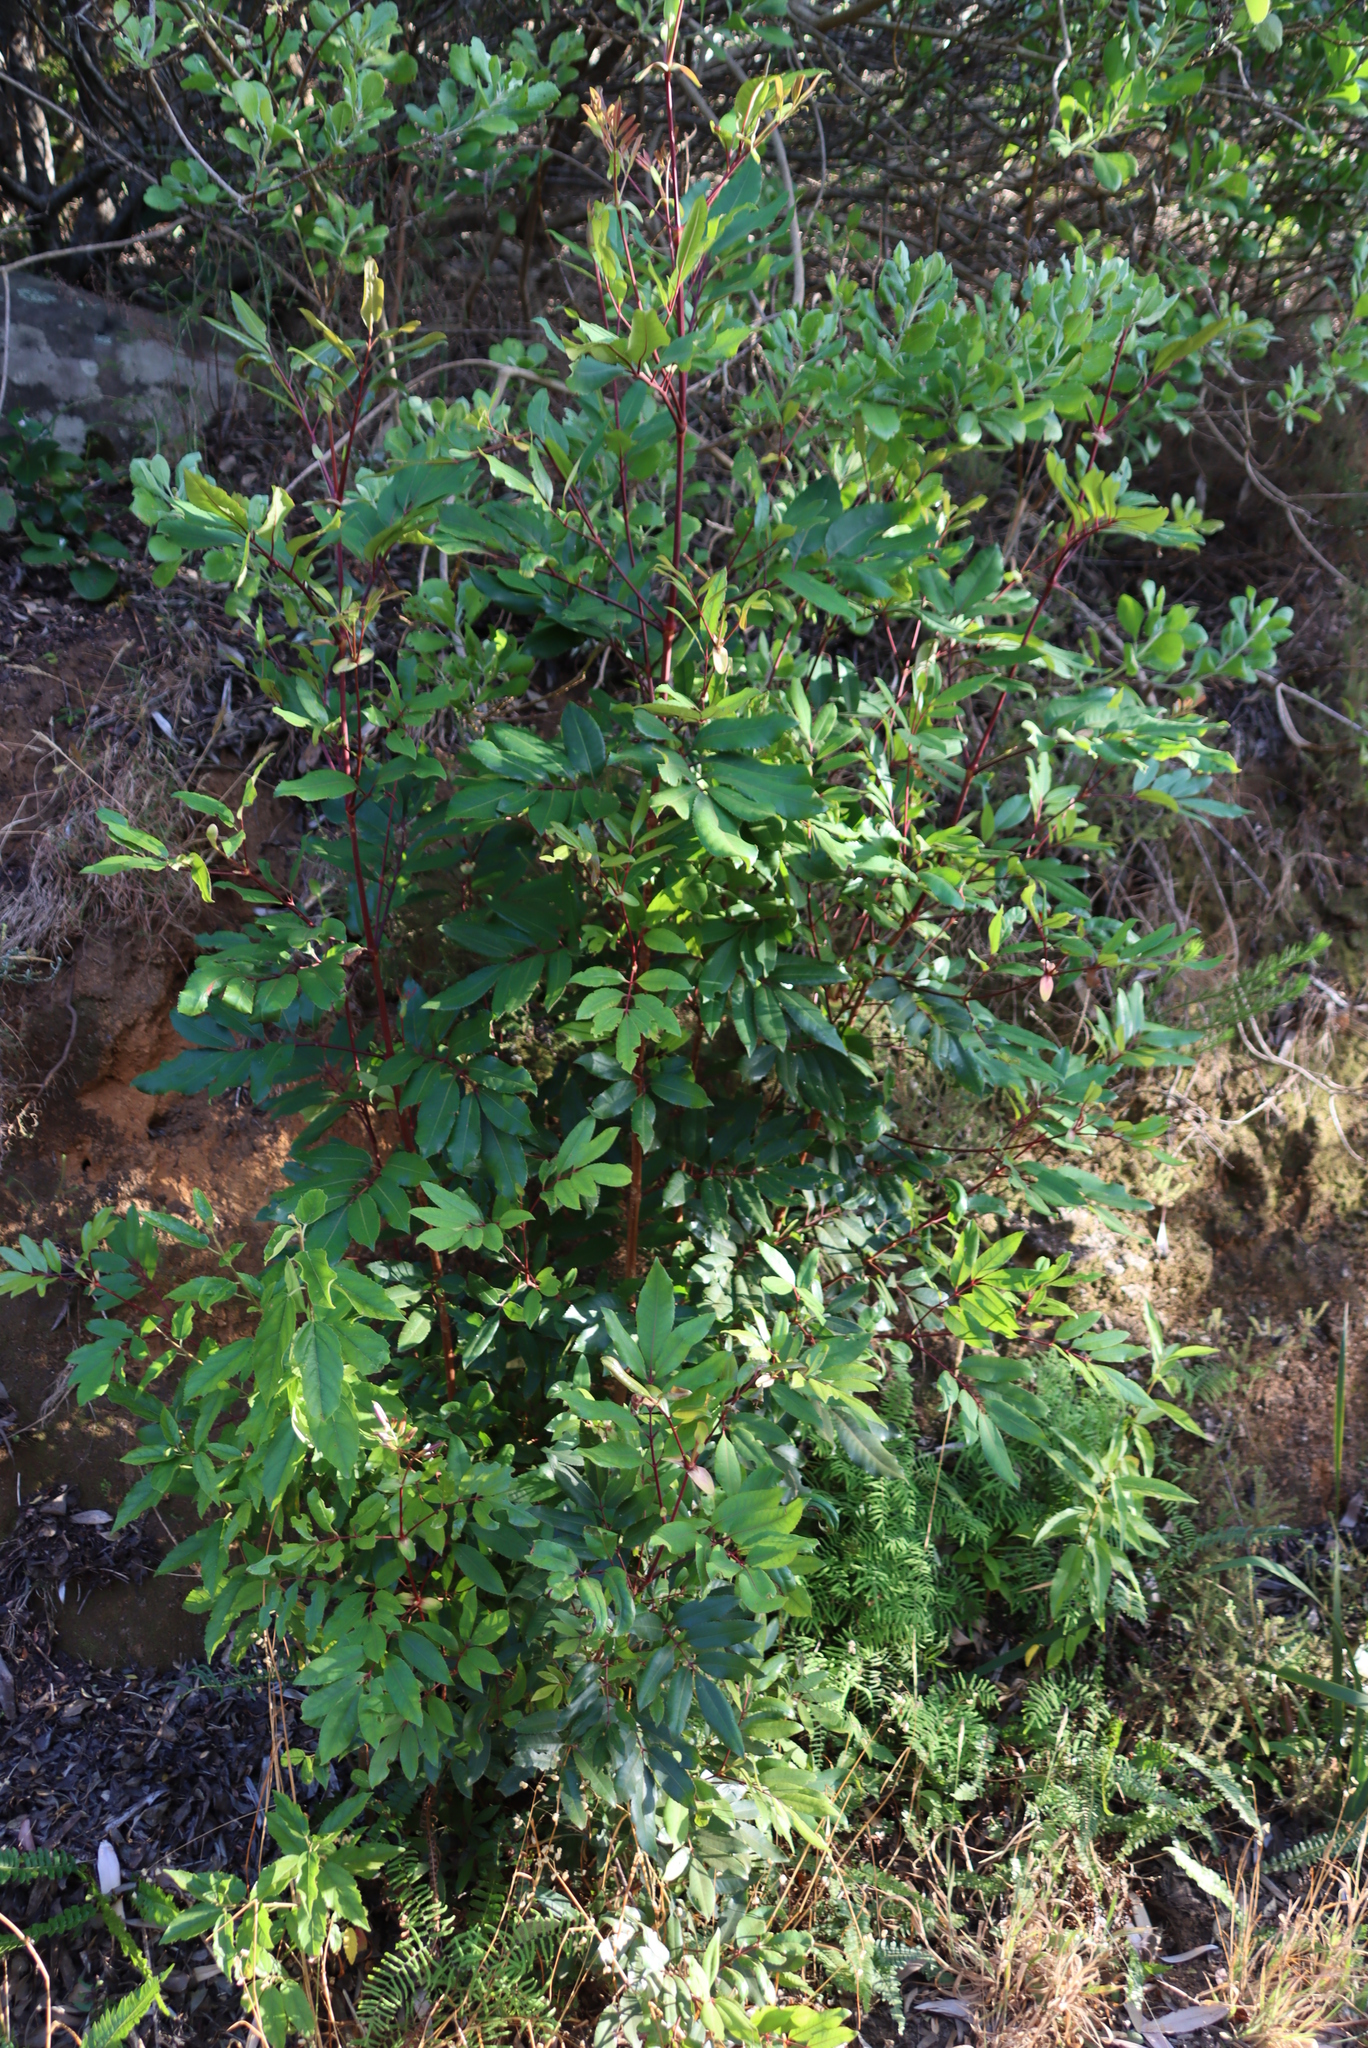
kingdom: Plantae
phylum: Tracheophyta
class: Magnoliopsida
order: Oxalidales
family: Cunoniaceae
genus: Cunonia
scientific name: Cunonia capensis
